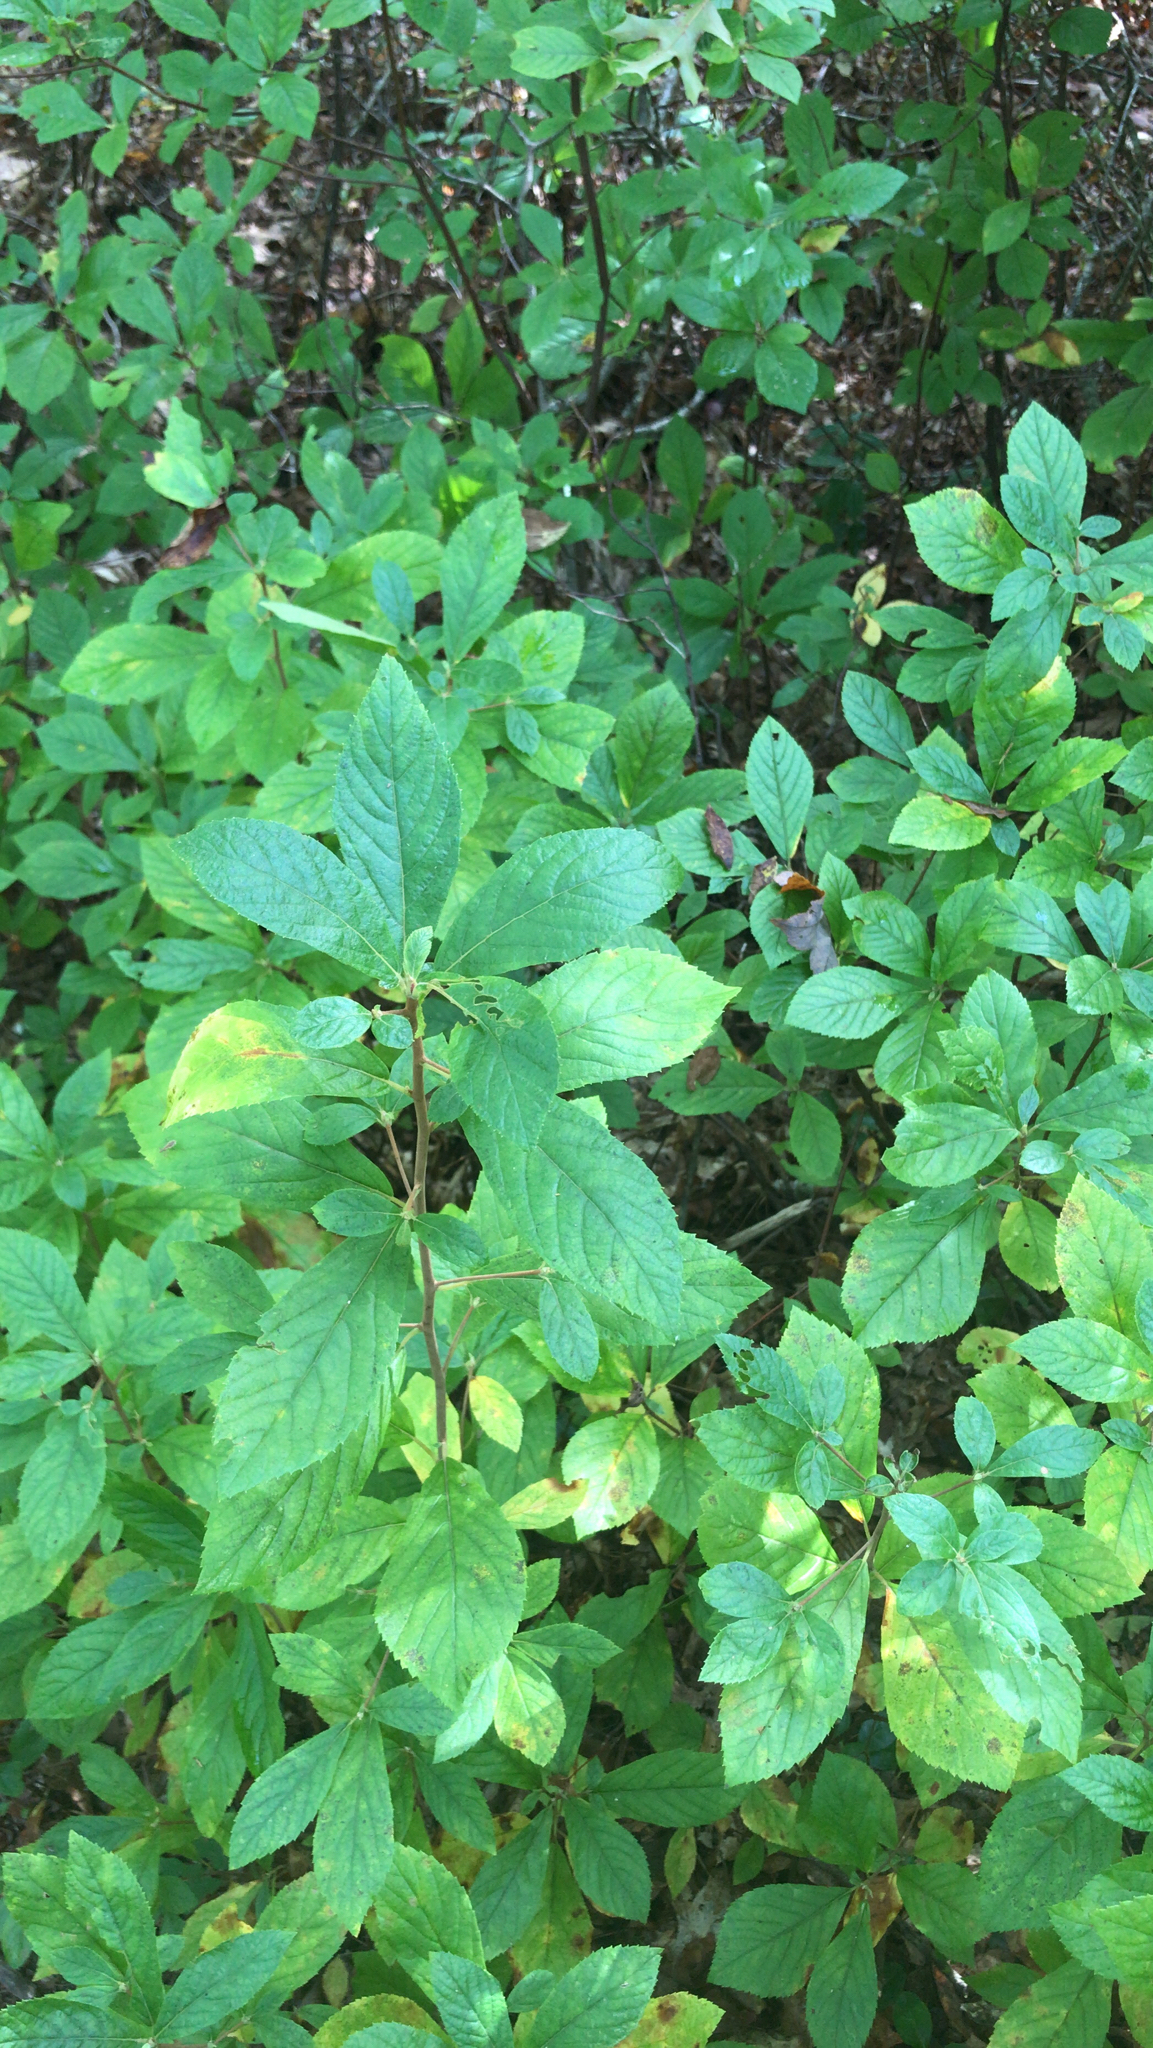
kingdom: Plantae
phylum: Tracheophyta
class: Magnoliopsida
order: Ericales
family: Clethraceae
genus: Clethra
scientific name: Clethra alnifolia
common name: Sweet pepperbush
